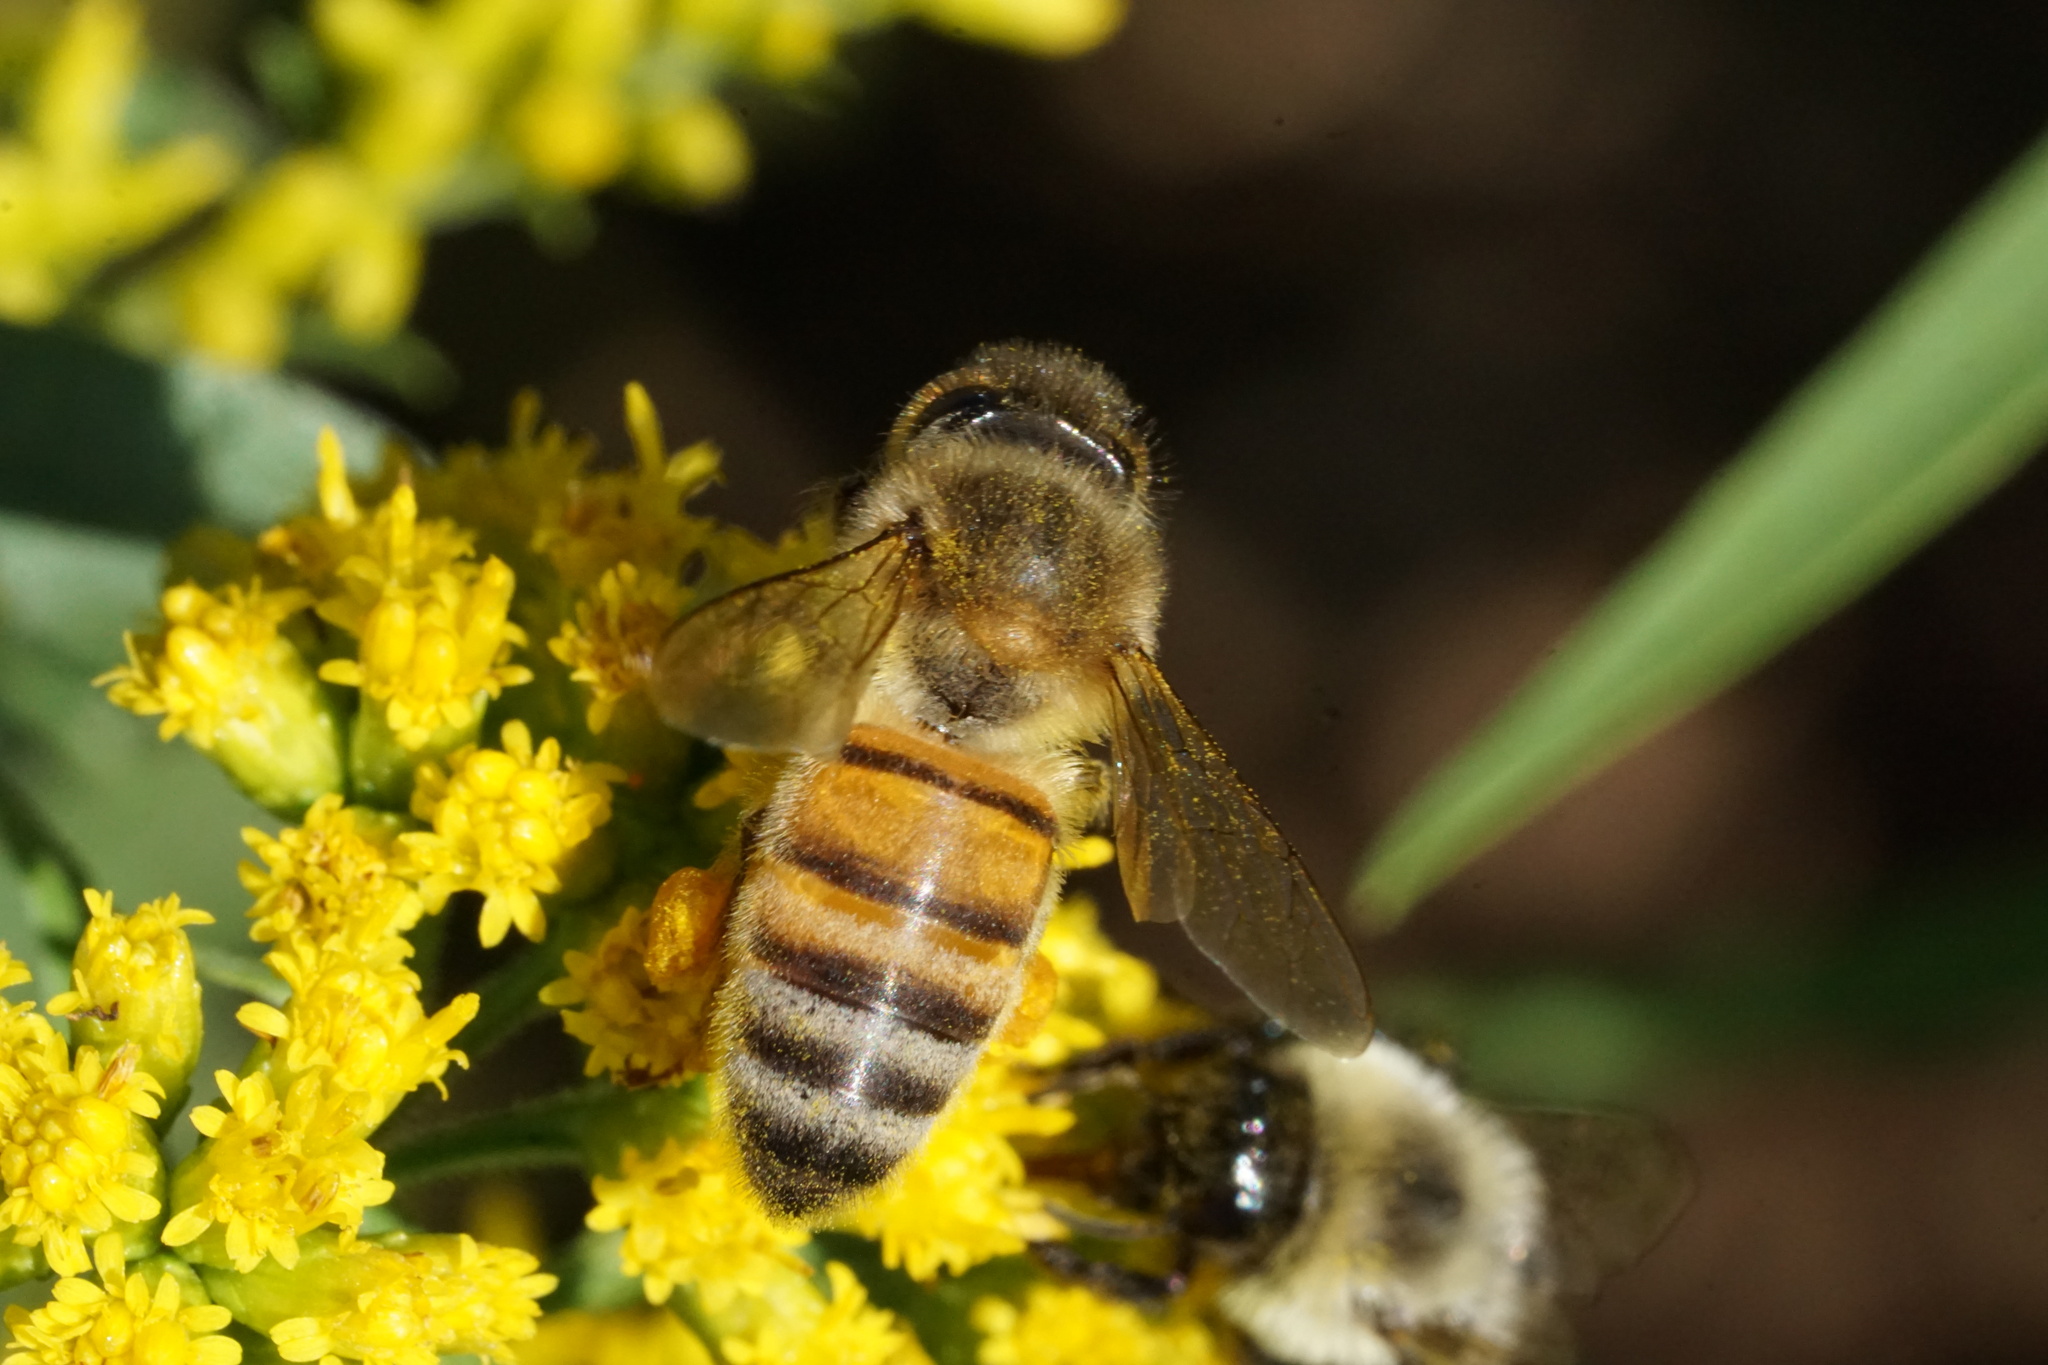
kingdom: Animalia
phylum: Arthropoda
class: Insecta
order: Hymenoptera
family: Apidae
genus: Apis
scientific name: Apis mellifera
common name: Honey bee
